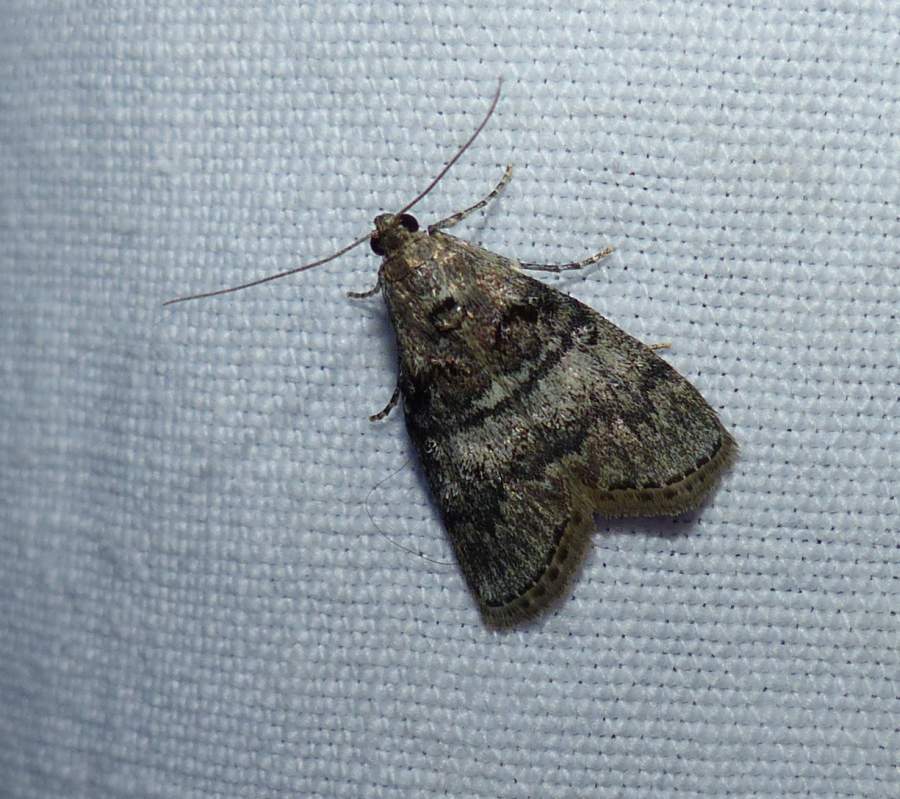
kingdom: Animalia
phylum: Arthropoda
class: Insecta
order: Lepidoptera
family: Pyralidae
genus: Pococera
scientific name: Pococera asperatella
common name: Maple webworm moth
